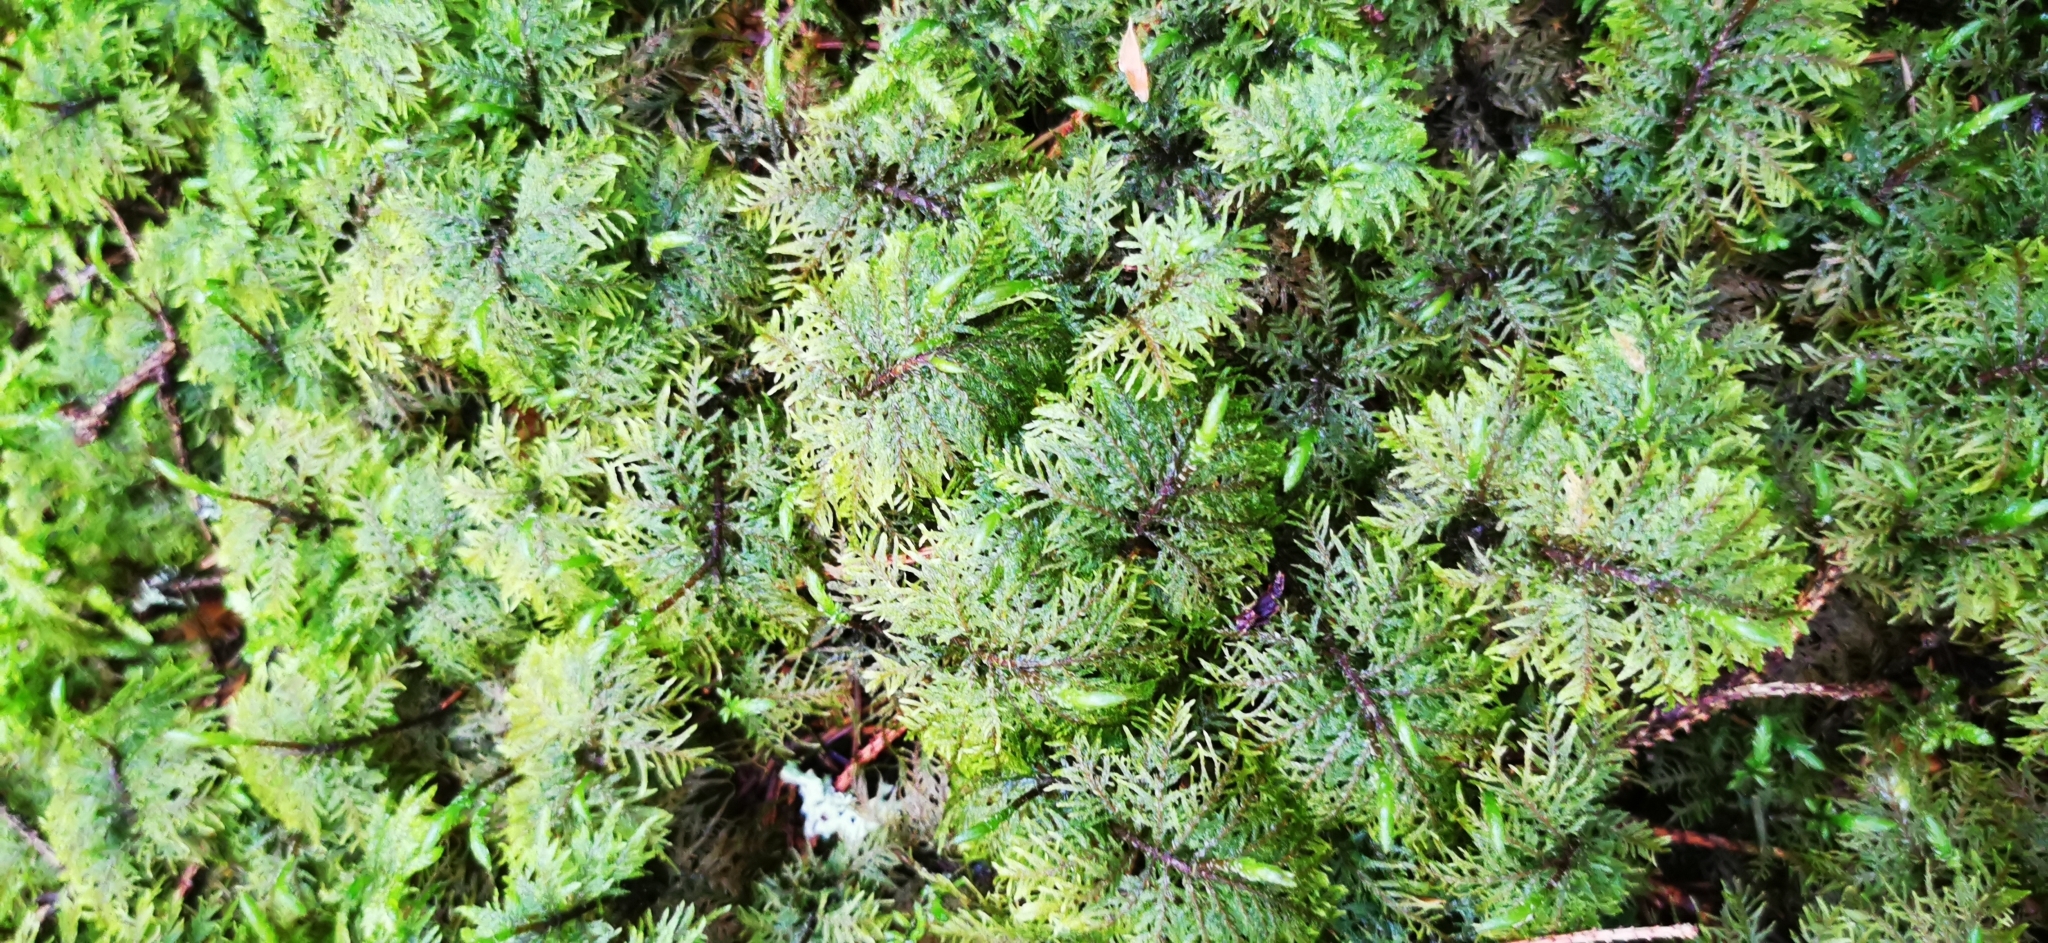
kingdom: Plantae
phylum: Bryophyta
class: Bryopsida
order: Hypnales
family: Hylocomiaceae
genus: Hylocomium
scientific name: Hylocomium splendens
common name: Stairstep moss
